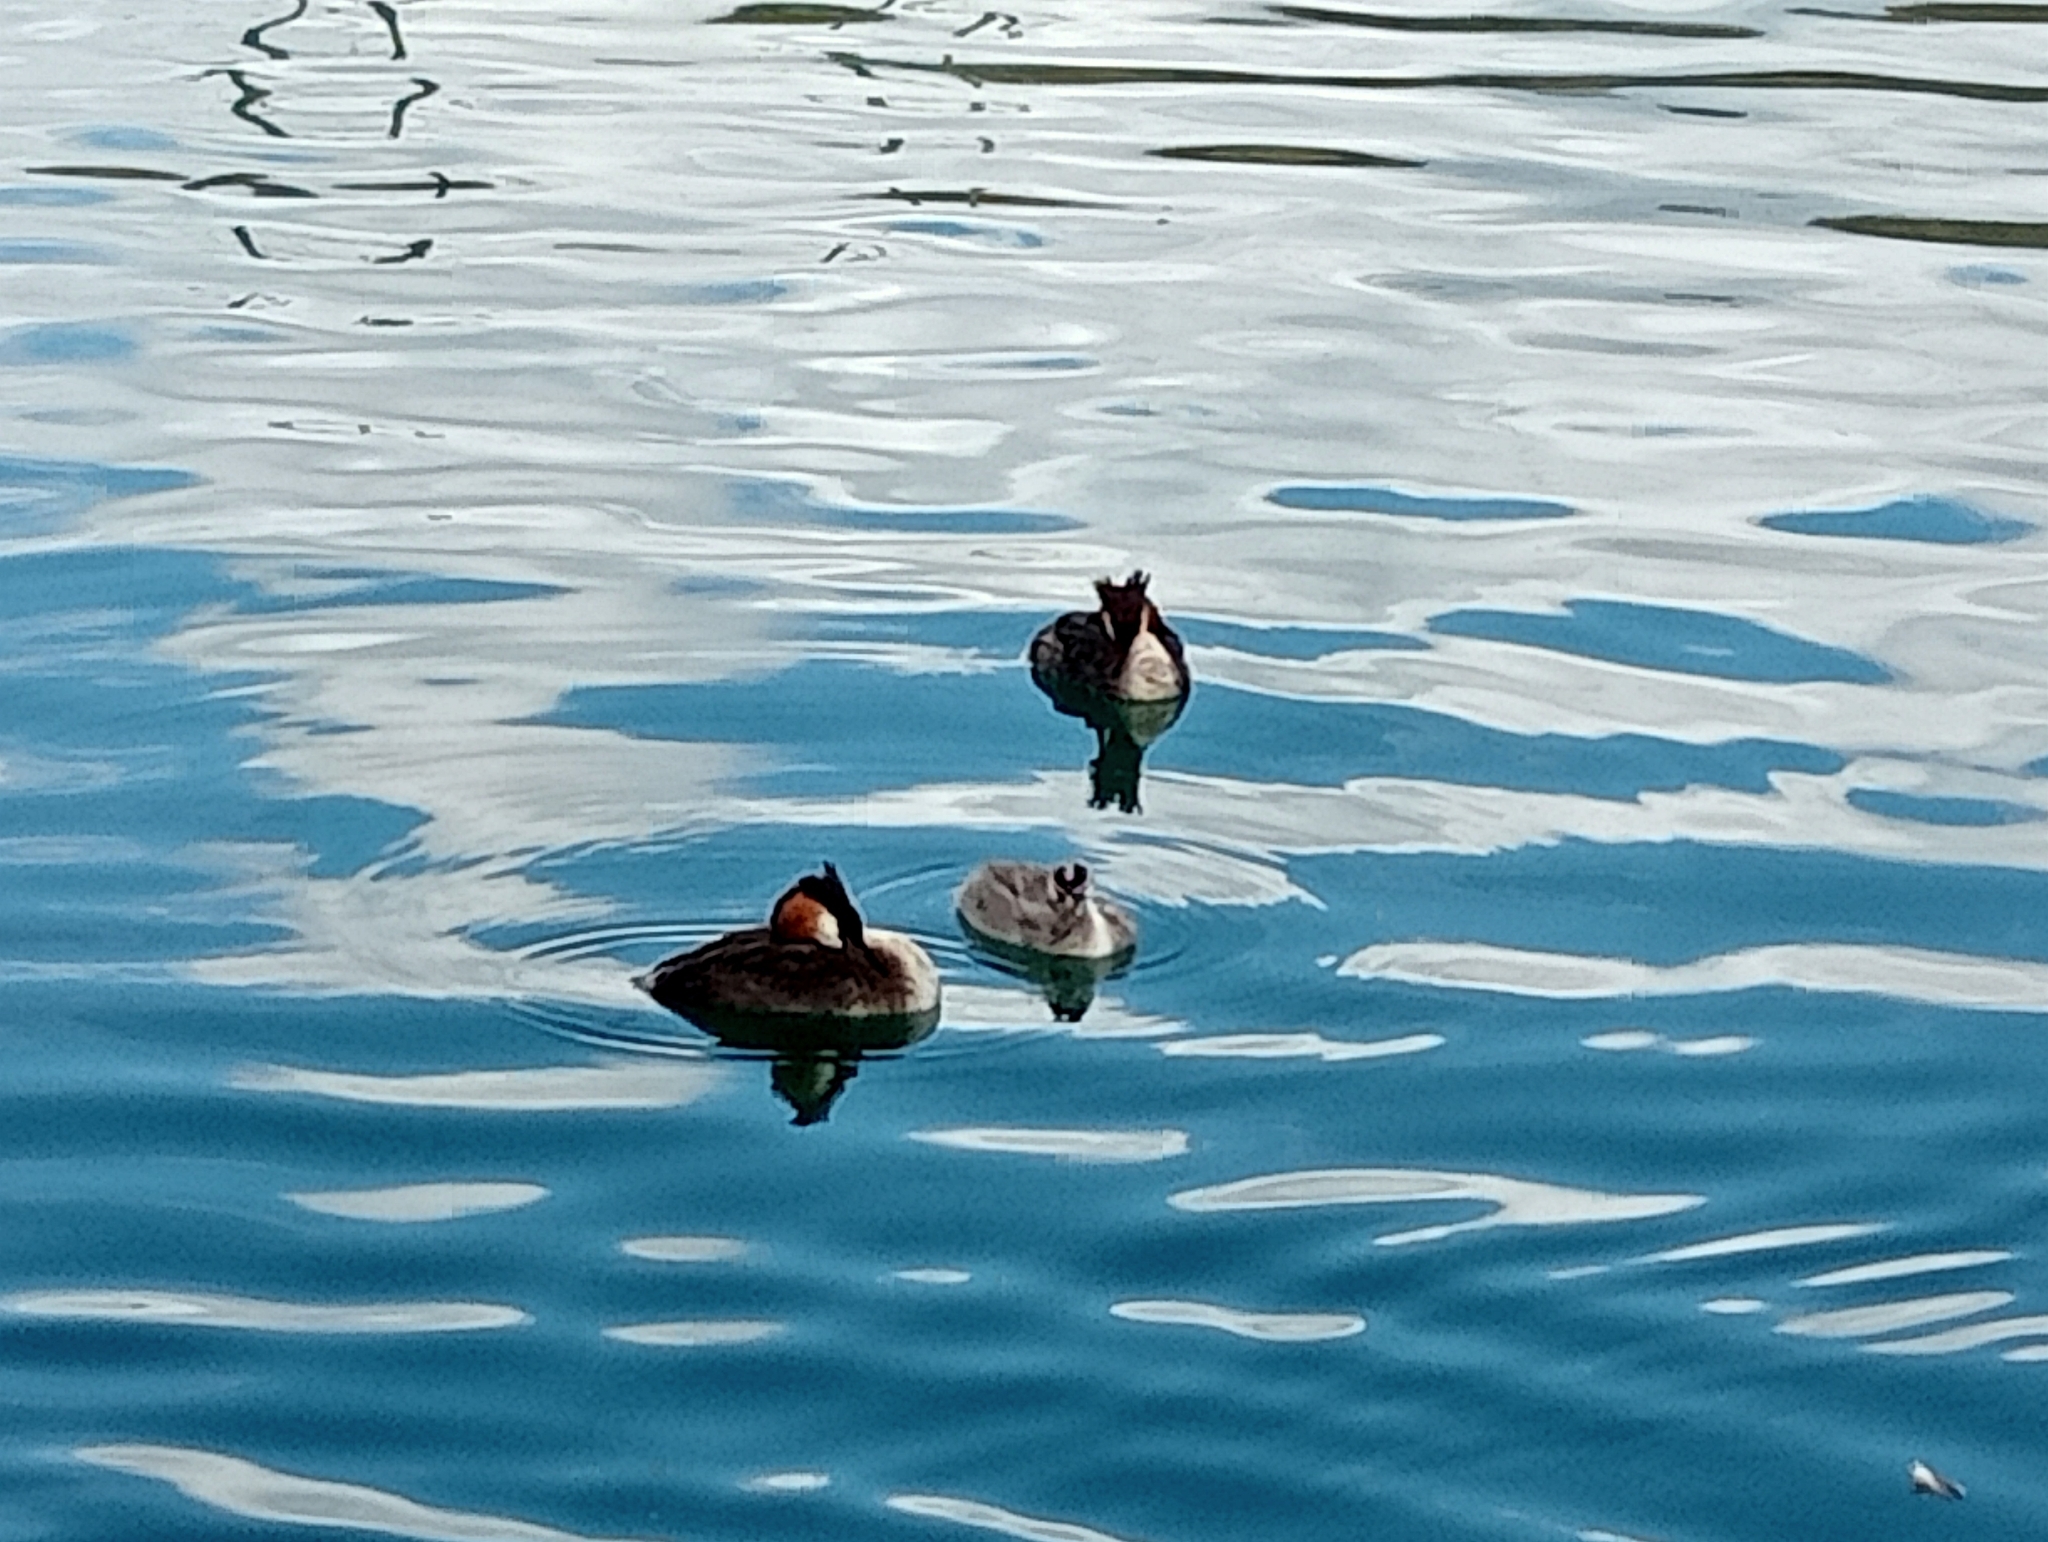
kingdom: Animalia
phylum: Chordata
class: Aves
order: Podicipediformes
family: Podicipedidae
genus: Podiceps
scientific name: Podiceps cristatus
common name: Great crested grebe
